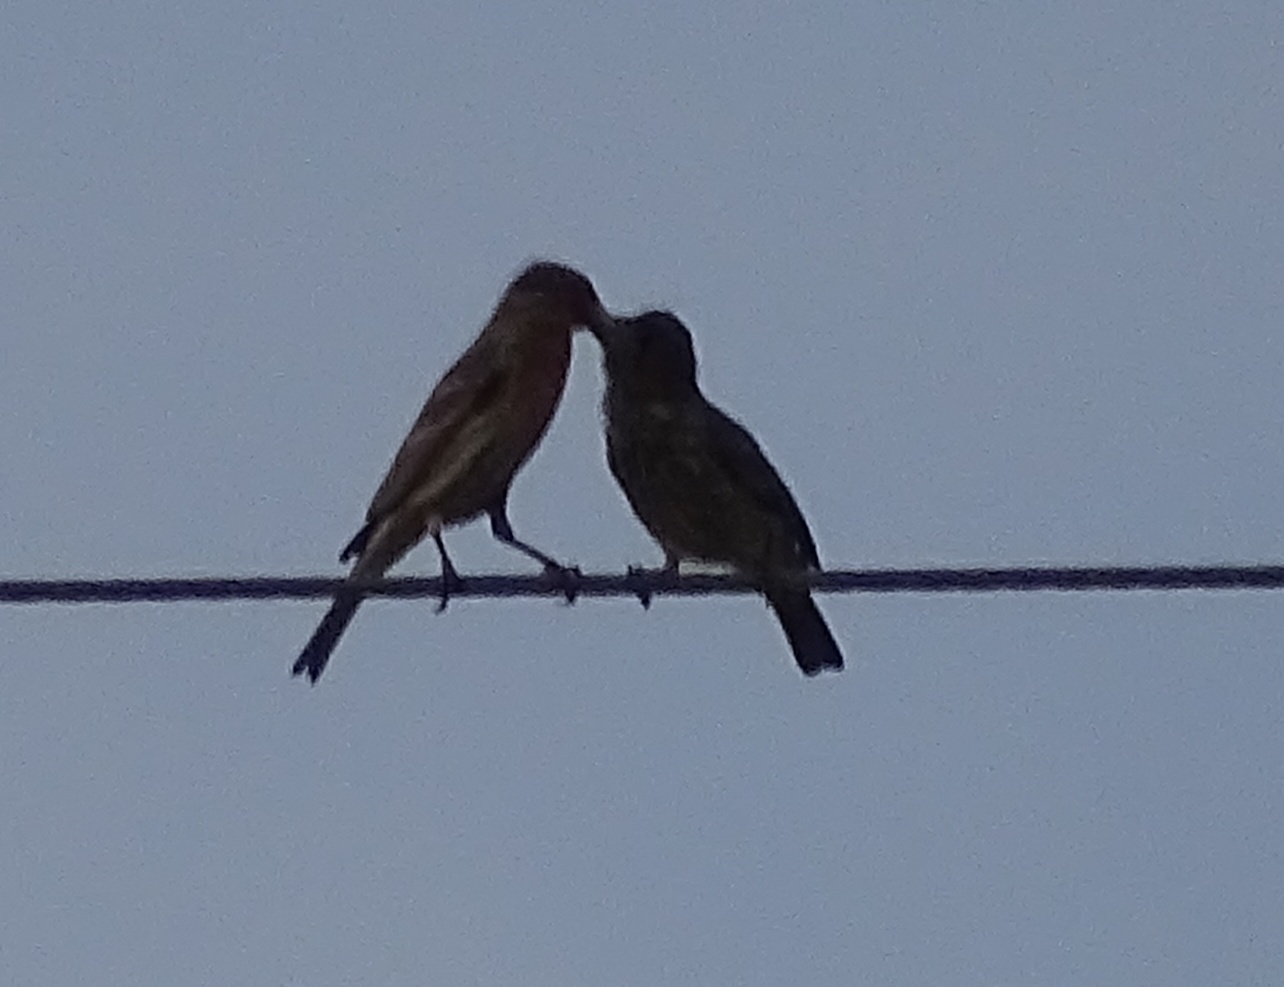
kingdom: Animalia
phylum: Chordata
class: Aves
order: Passeriformes
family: Fringillidae
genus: Haemorhous
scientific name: Haemorhous mexicanus
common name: House finch
